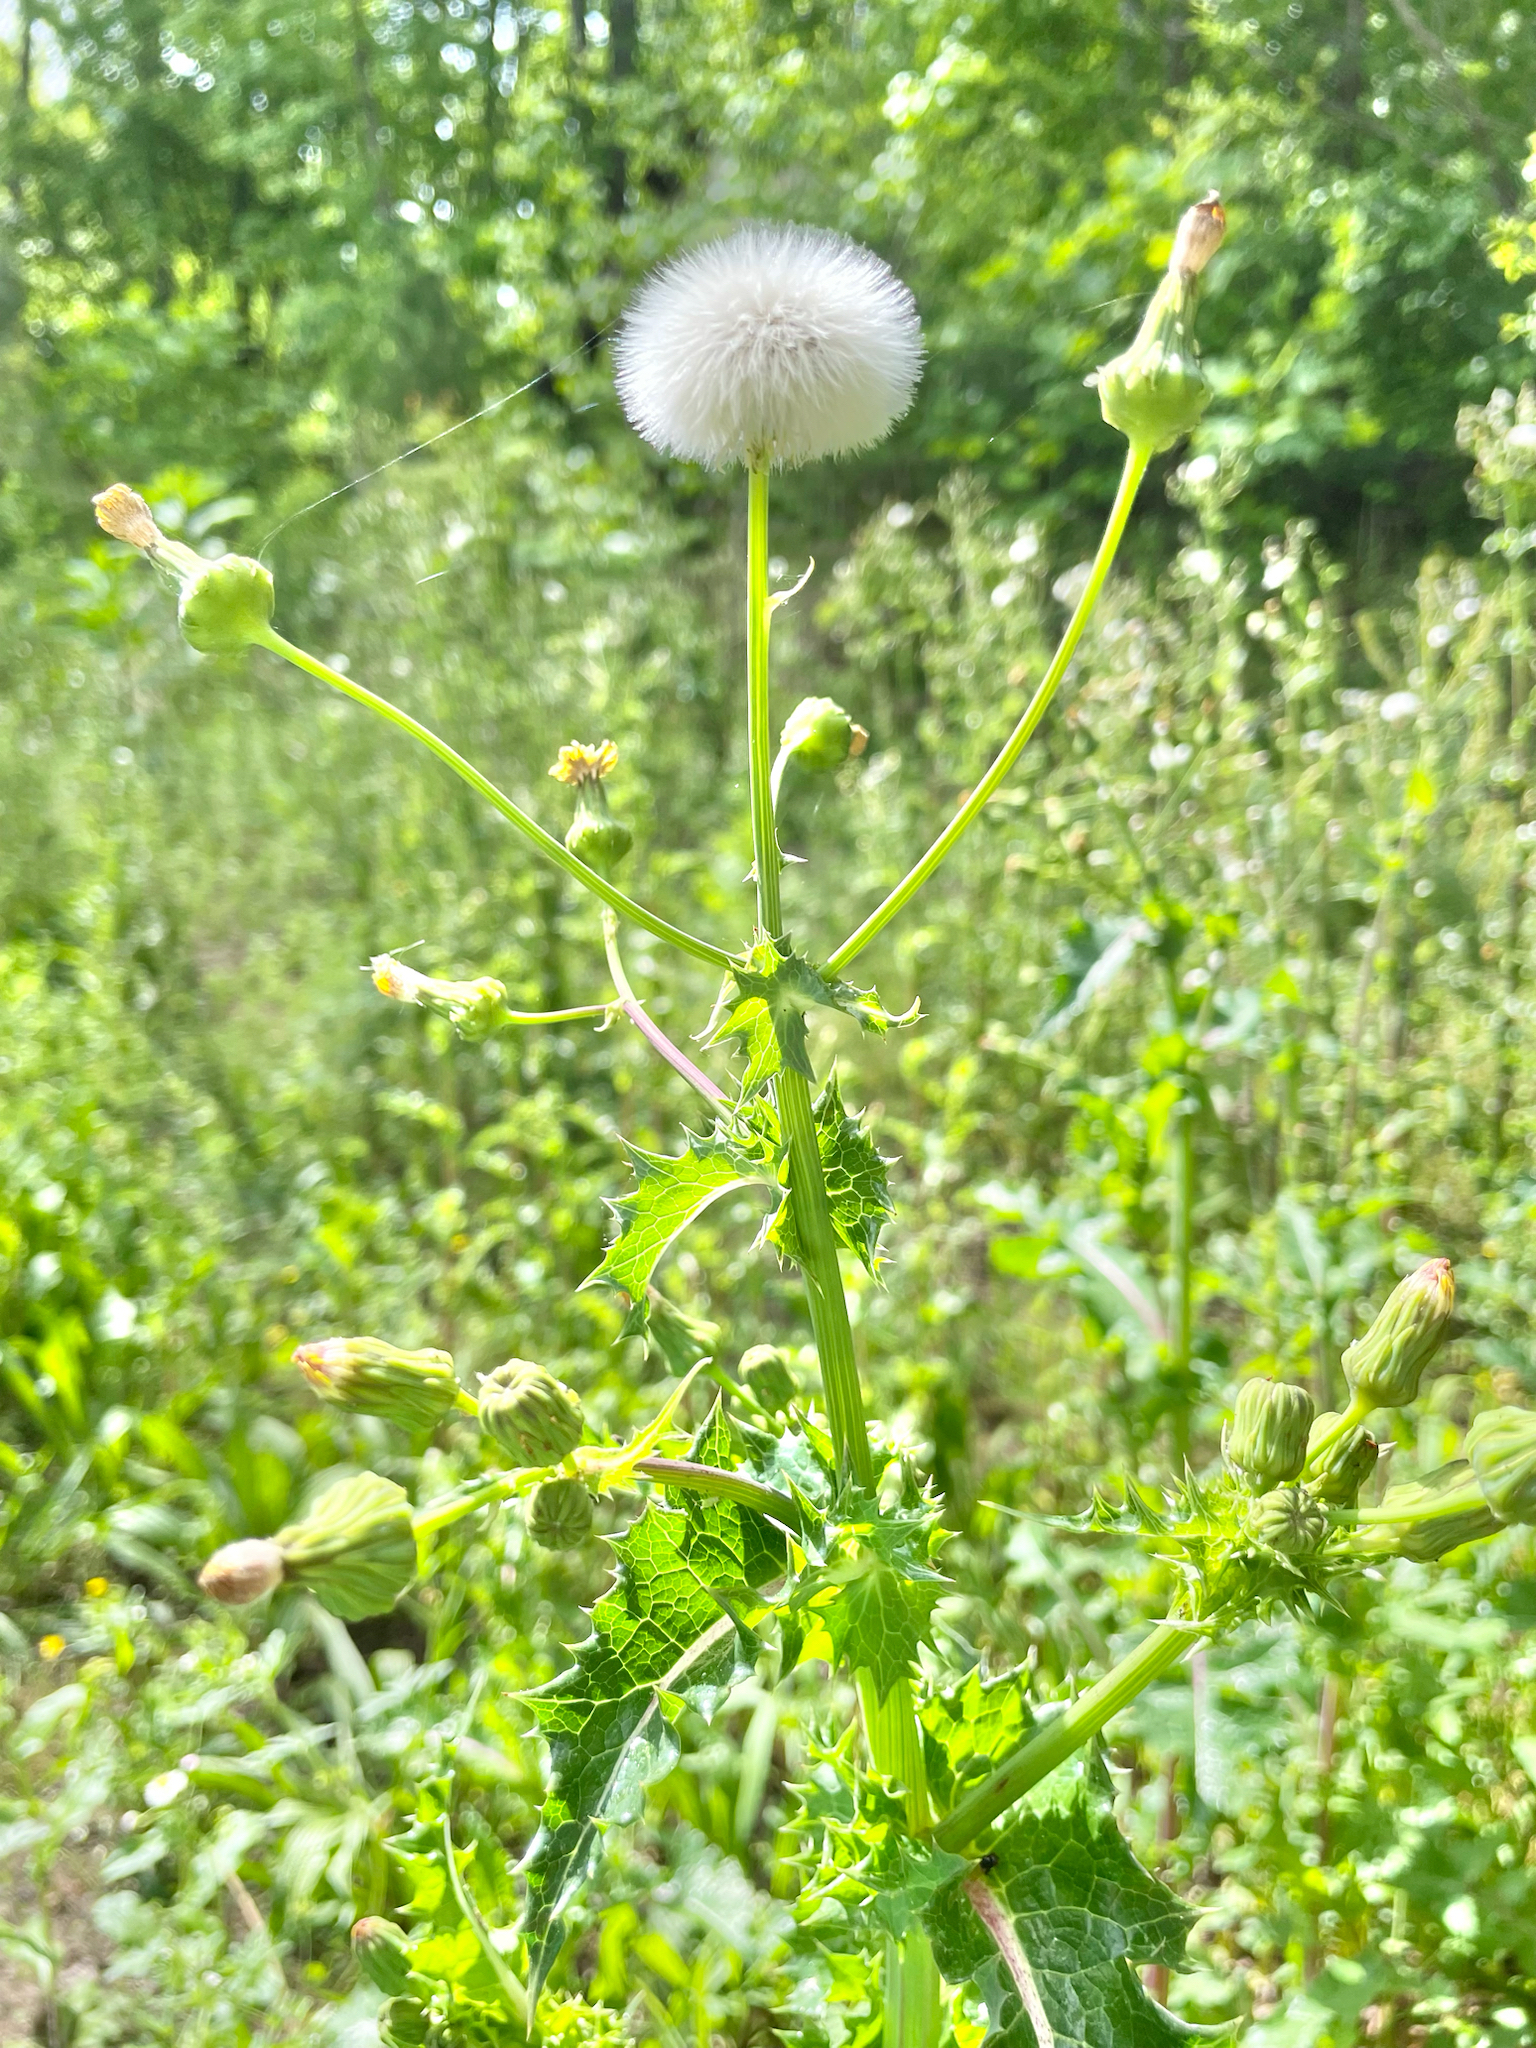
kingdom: Plantae
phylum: Tracheophyta
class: Magnoliopsida
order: Asterales
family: Asteraceae
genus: Sonchus
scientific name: Sonchus asper
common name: Prickly sow-thistle
